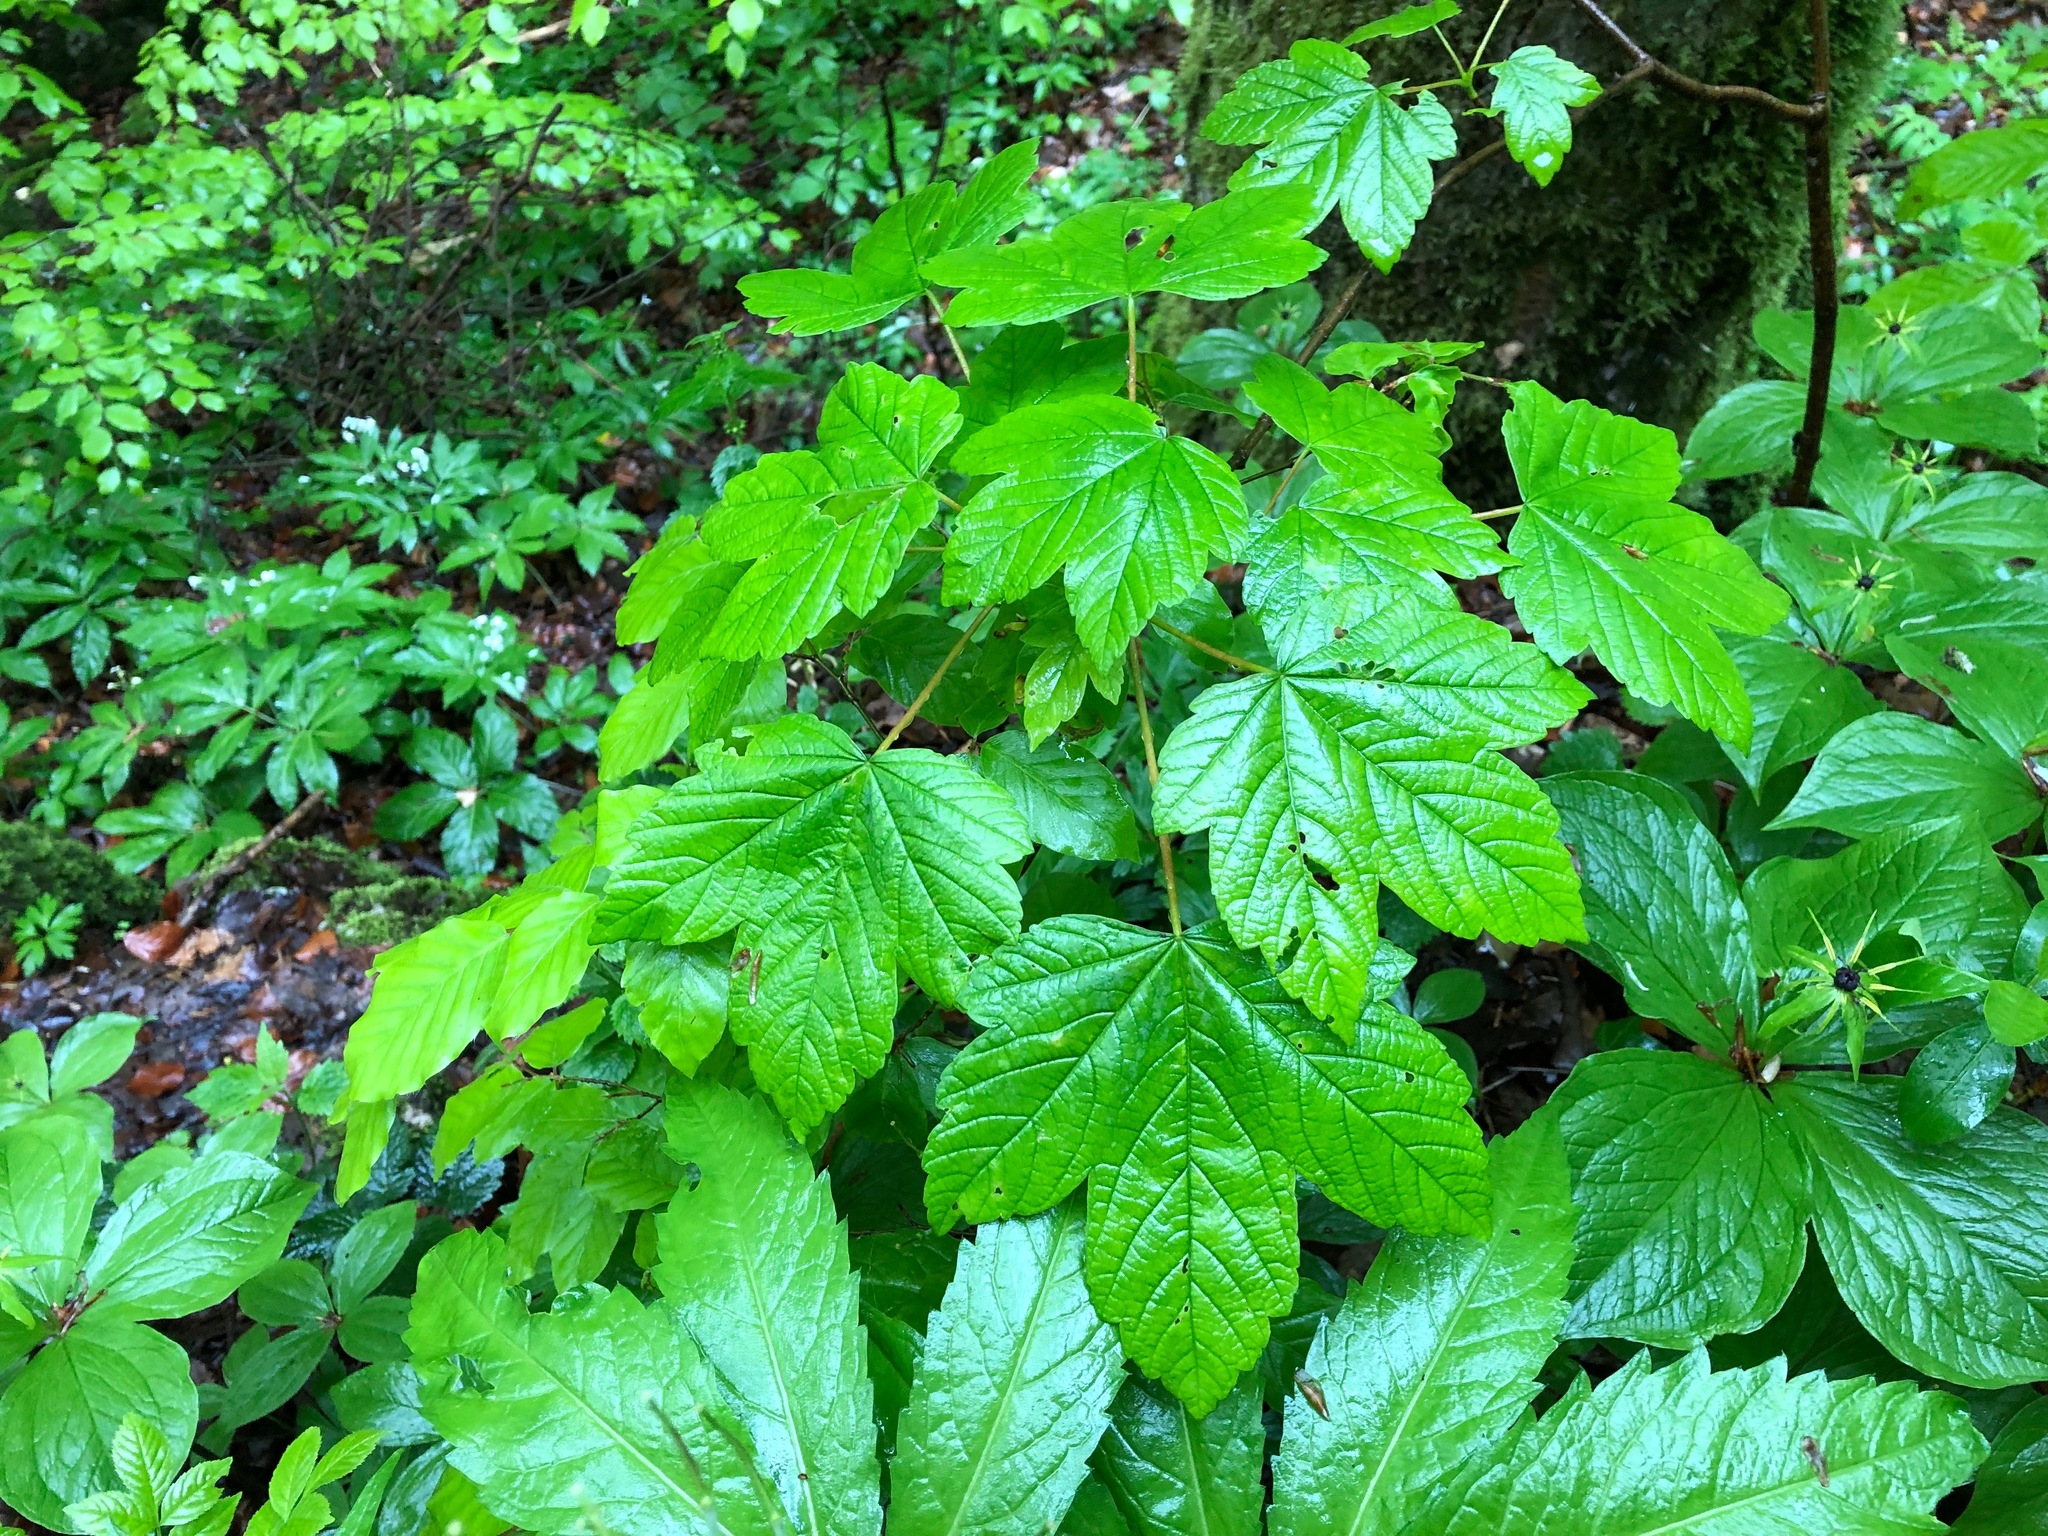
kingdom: Plantae
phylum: Tracheophyta
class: Magnoliopsida
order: Sapindales
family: Sapindaceae
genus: Acer
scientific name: Acer pseudoplatanus
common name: Sycamore
